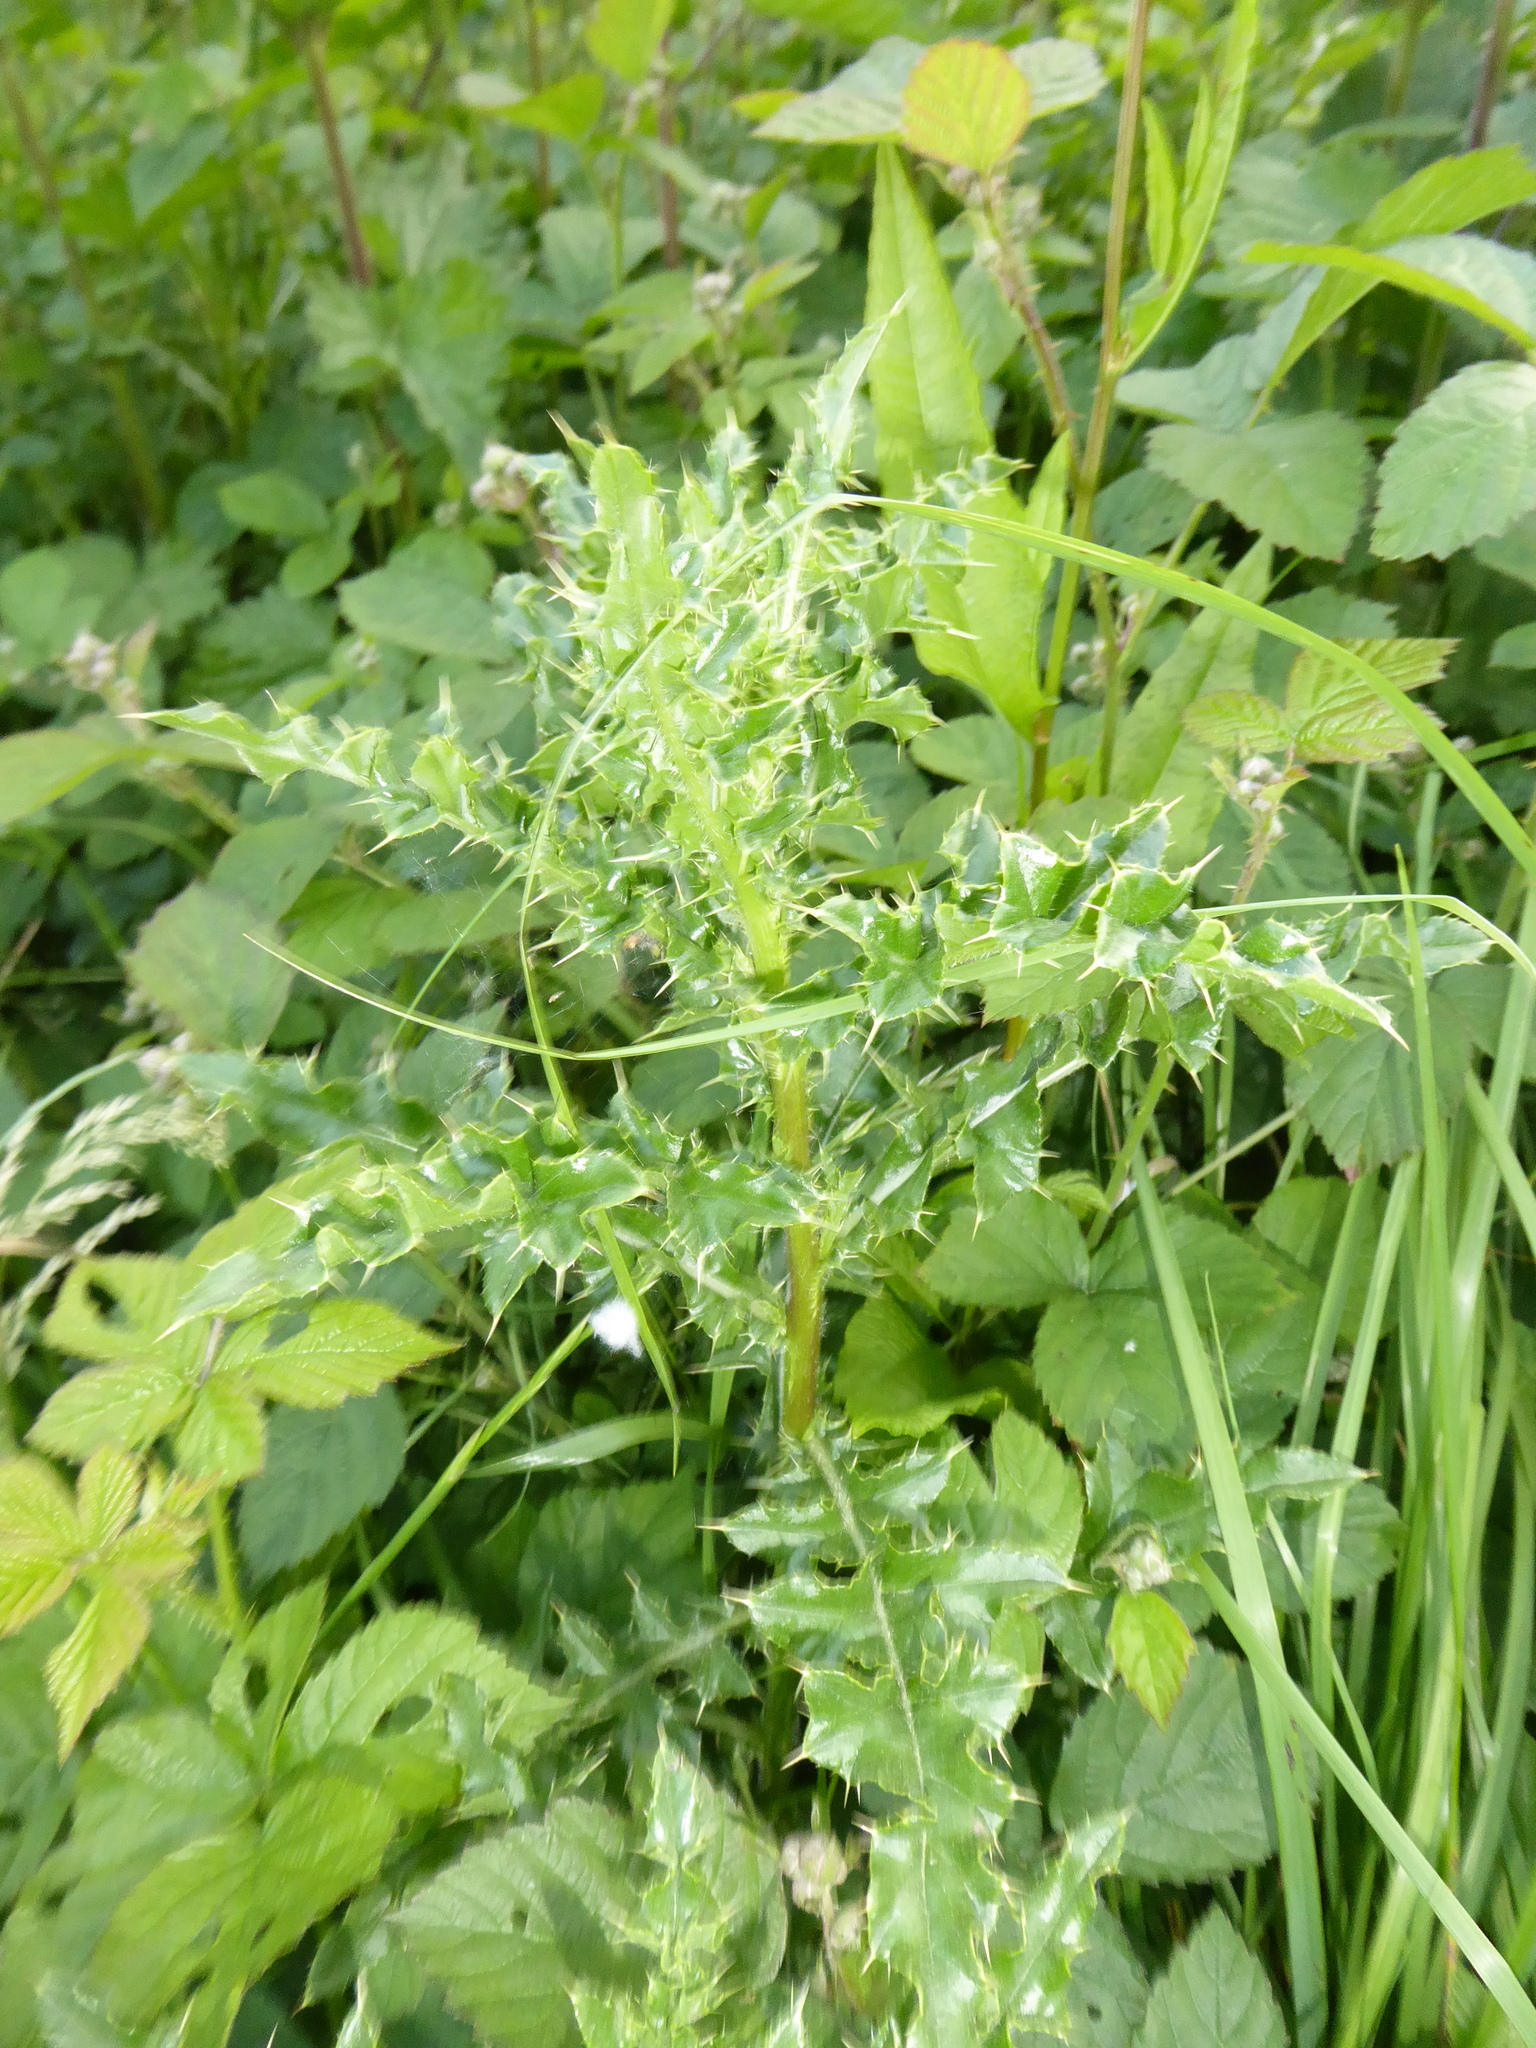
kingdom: Plantae
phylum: Tracheophyta
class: Magnoliopsida
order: Asterales
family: Asteraceae
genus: Cirsium
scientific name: Cirsium arvense
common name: Creeping thistle
